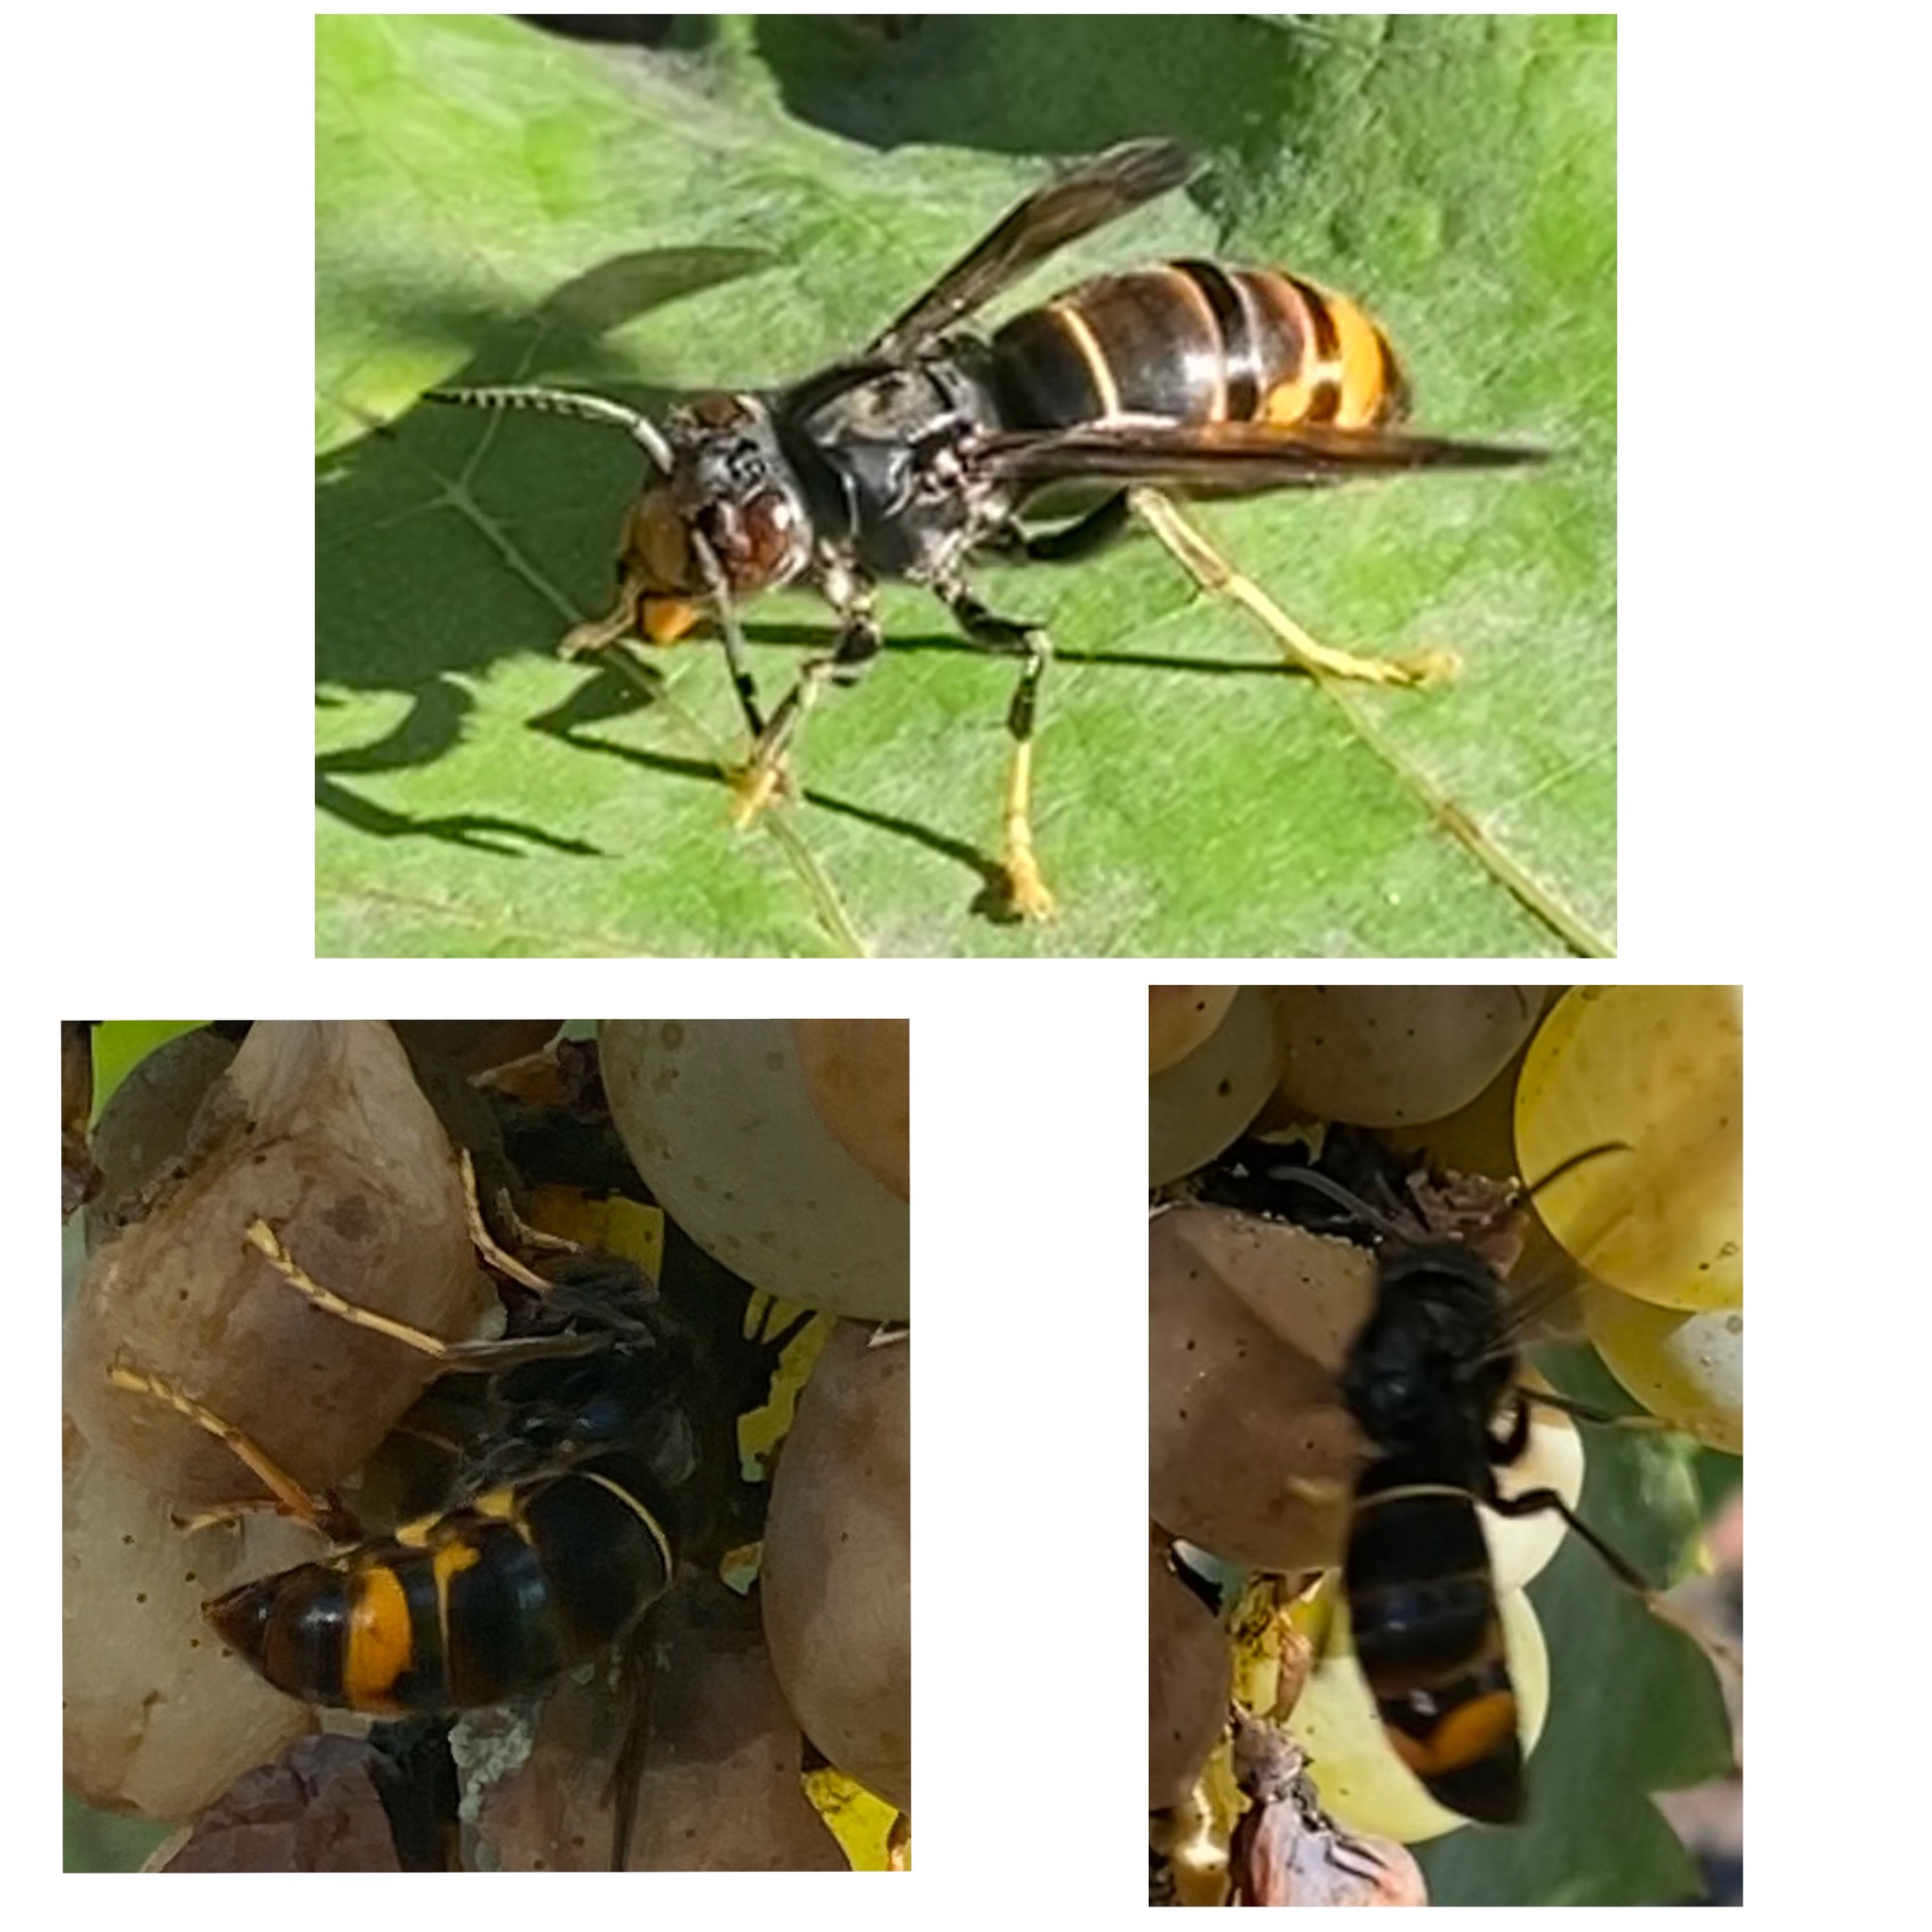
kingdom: Animalia
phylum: Arthropoda
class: Insecta
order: Hymenoptera
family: Vespidae
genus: Vespa
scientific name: Vespa velutina
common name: Asian hornet
